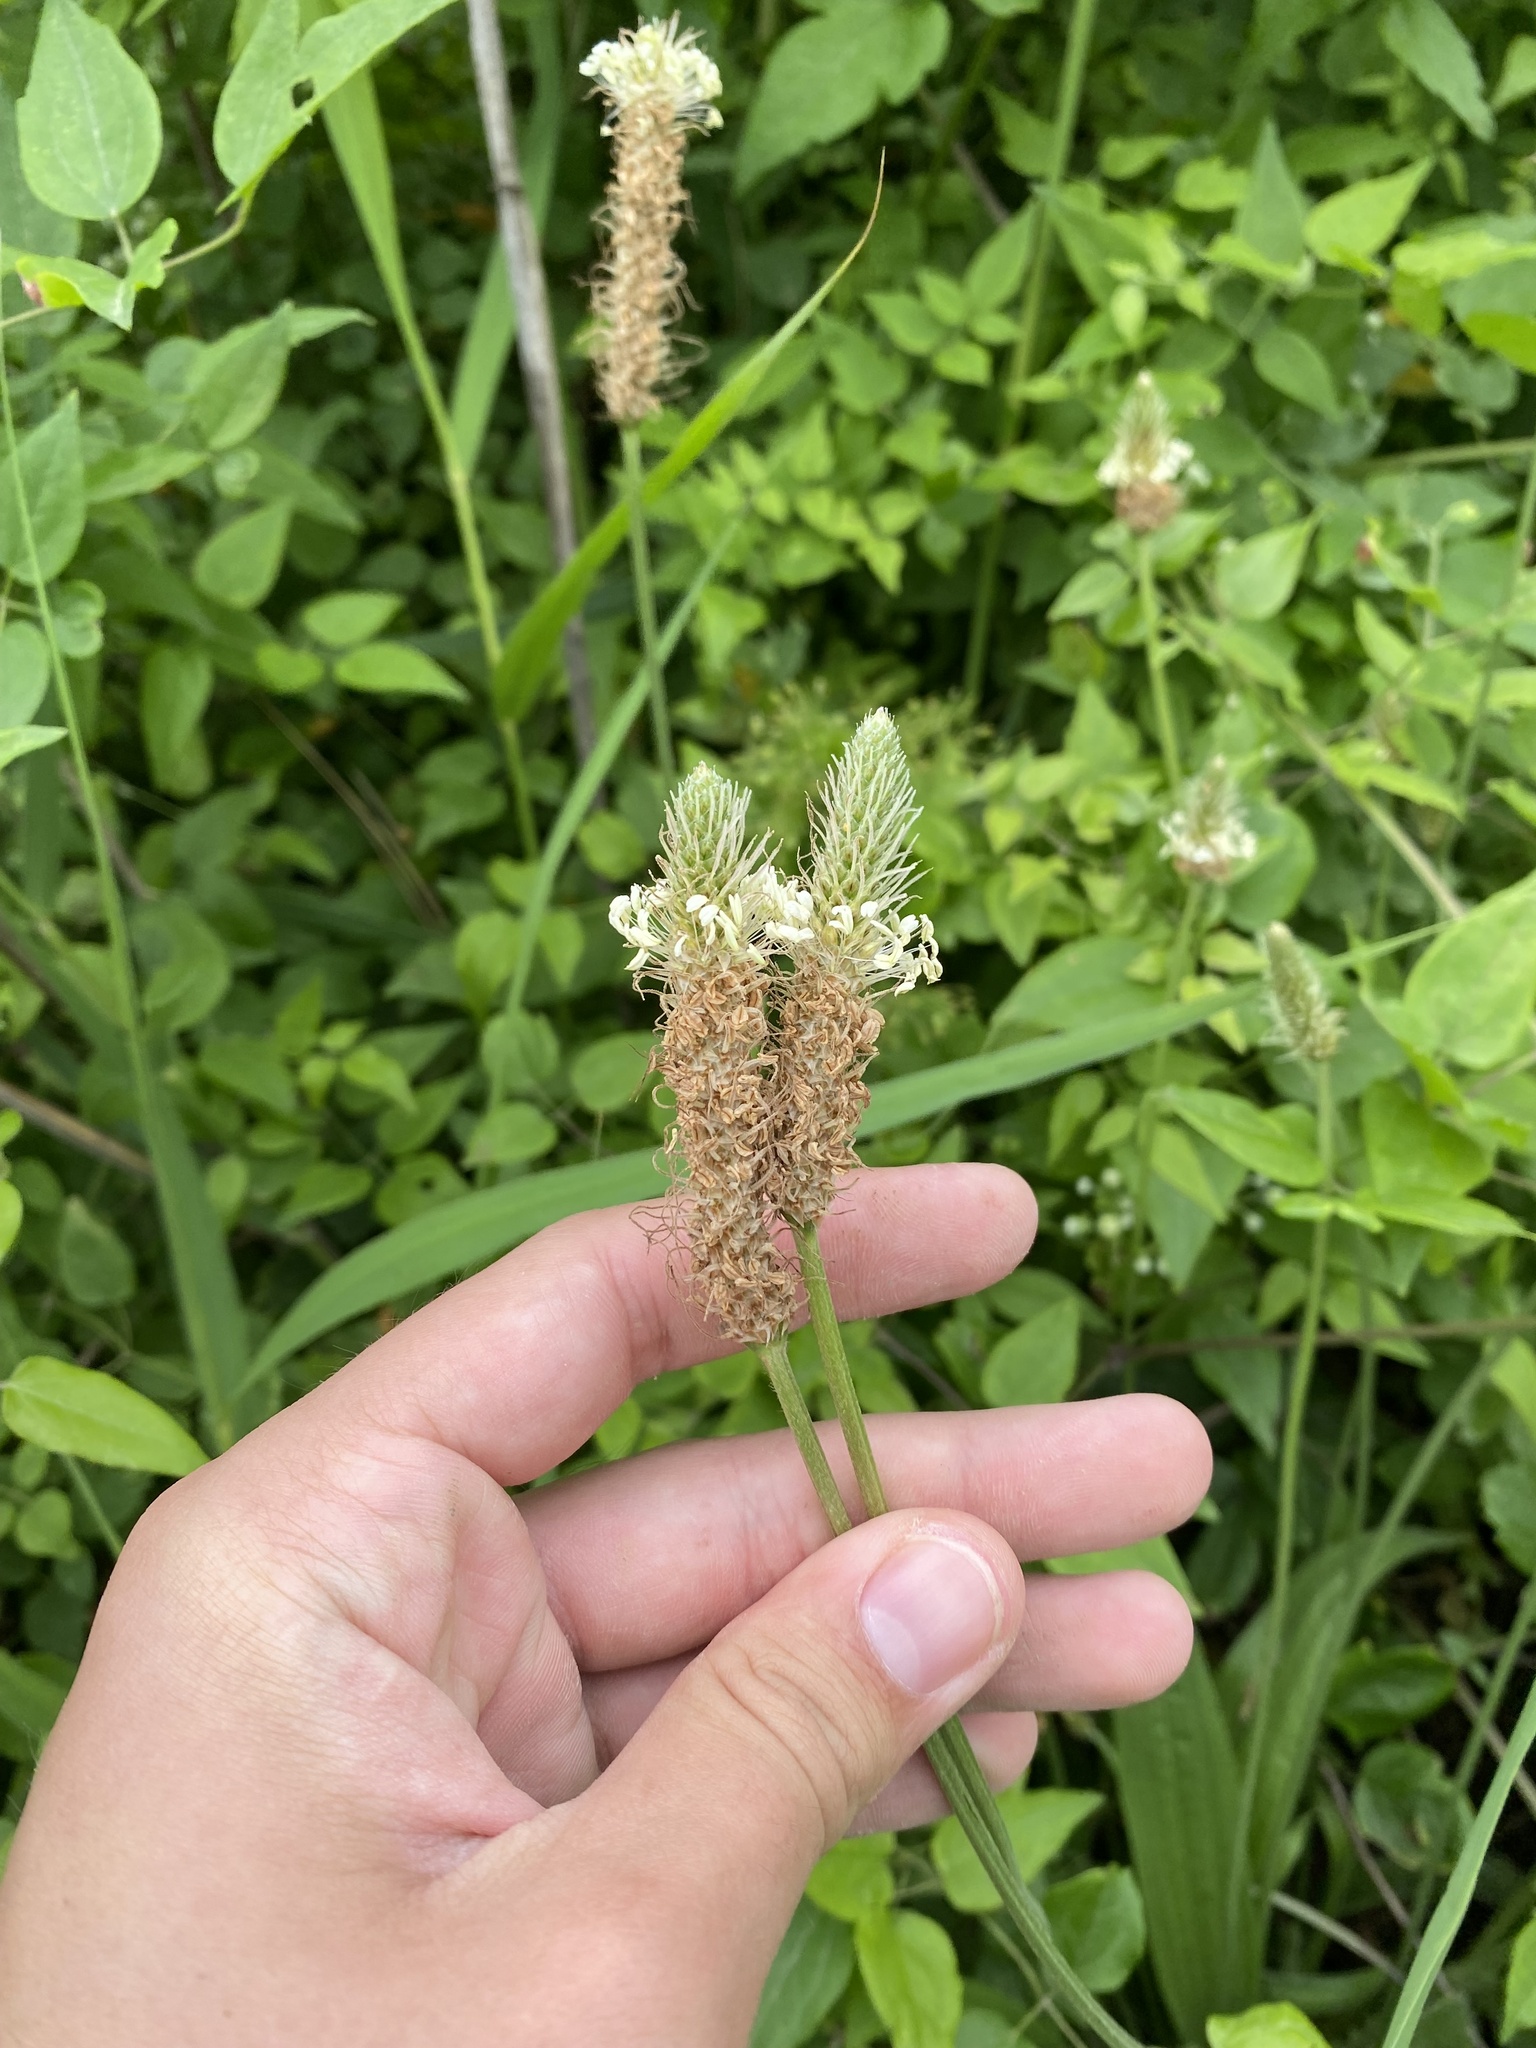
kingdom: Plantae
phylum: Tracheophyta
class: Magnoliopsida
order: Lamiales
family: Plantaginaceae
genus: Plantago
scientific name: Plantago lanceolata
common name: Ribwort plantain
